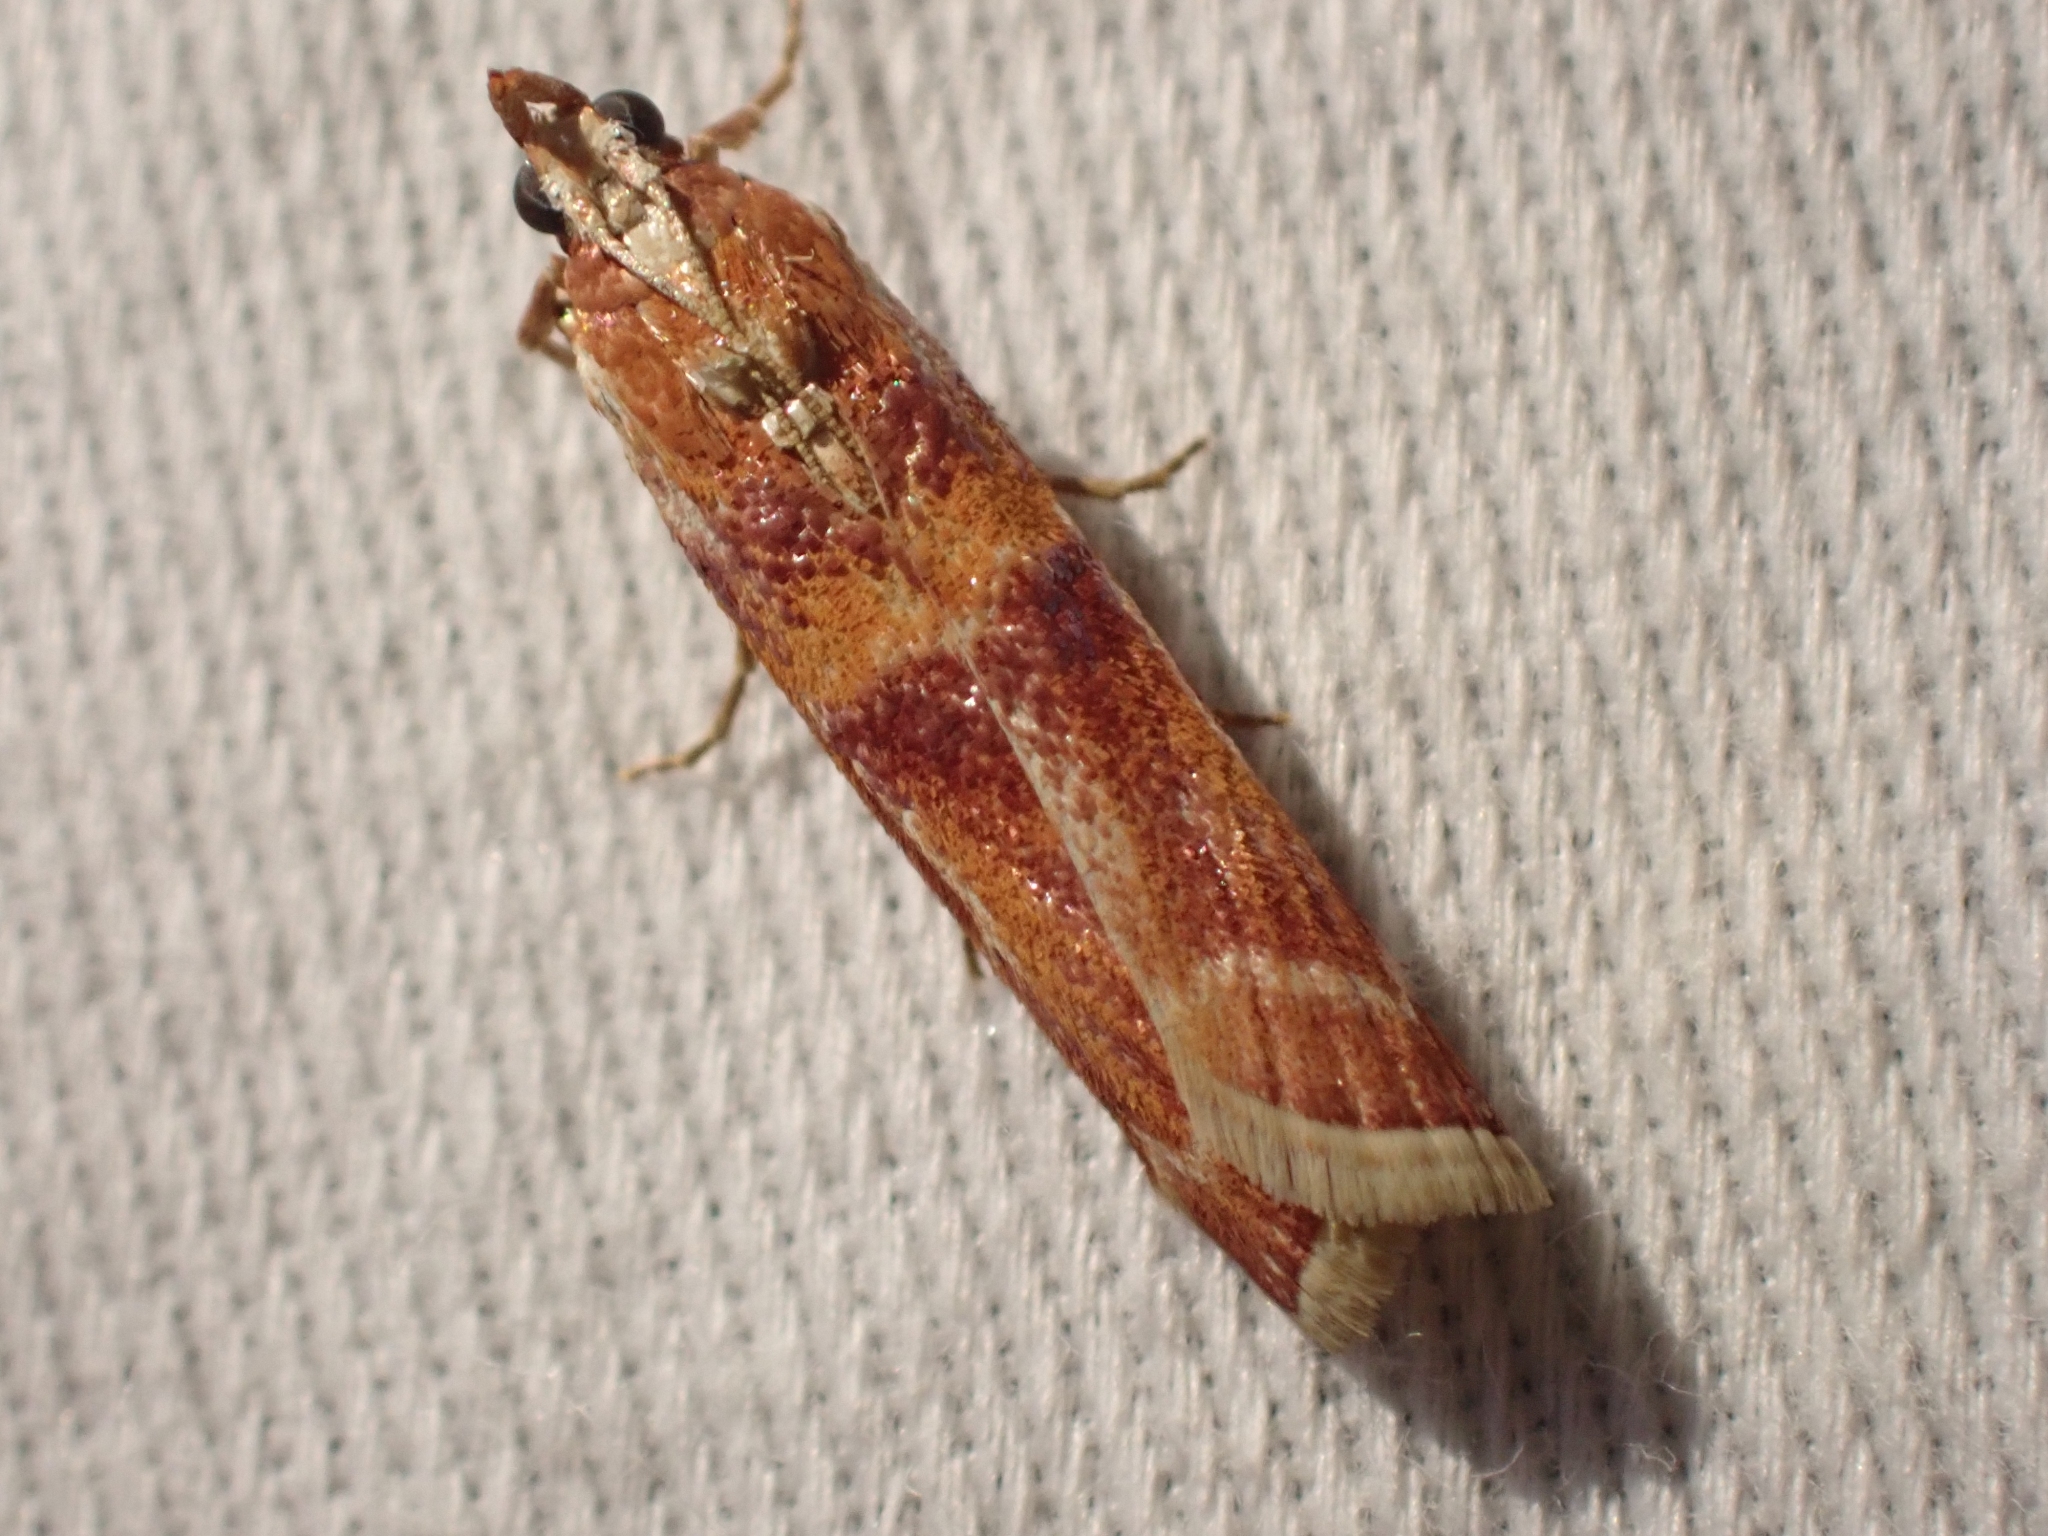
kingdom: Animalia
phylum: Arthropoda
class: Insecta
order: Lepidoptera
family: Pyralidae
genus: Dioryctria
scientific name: Dioryctria auranticella
